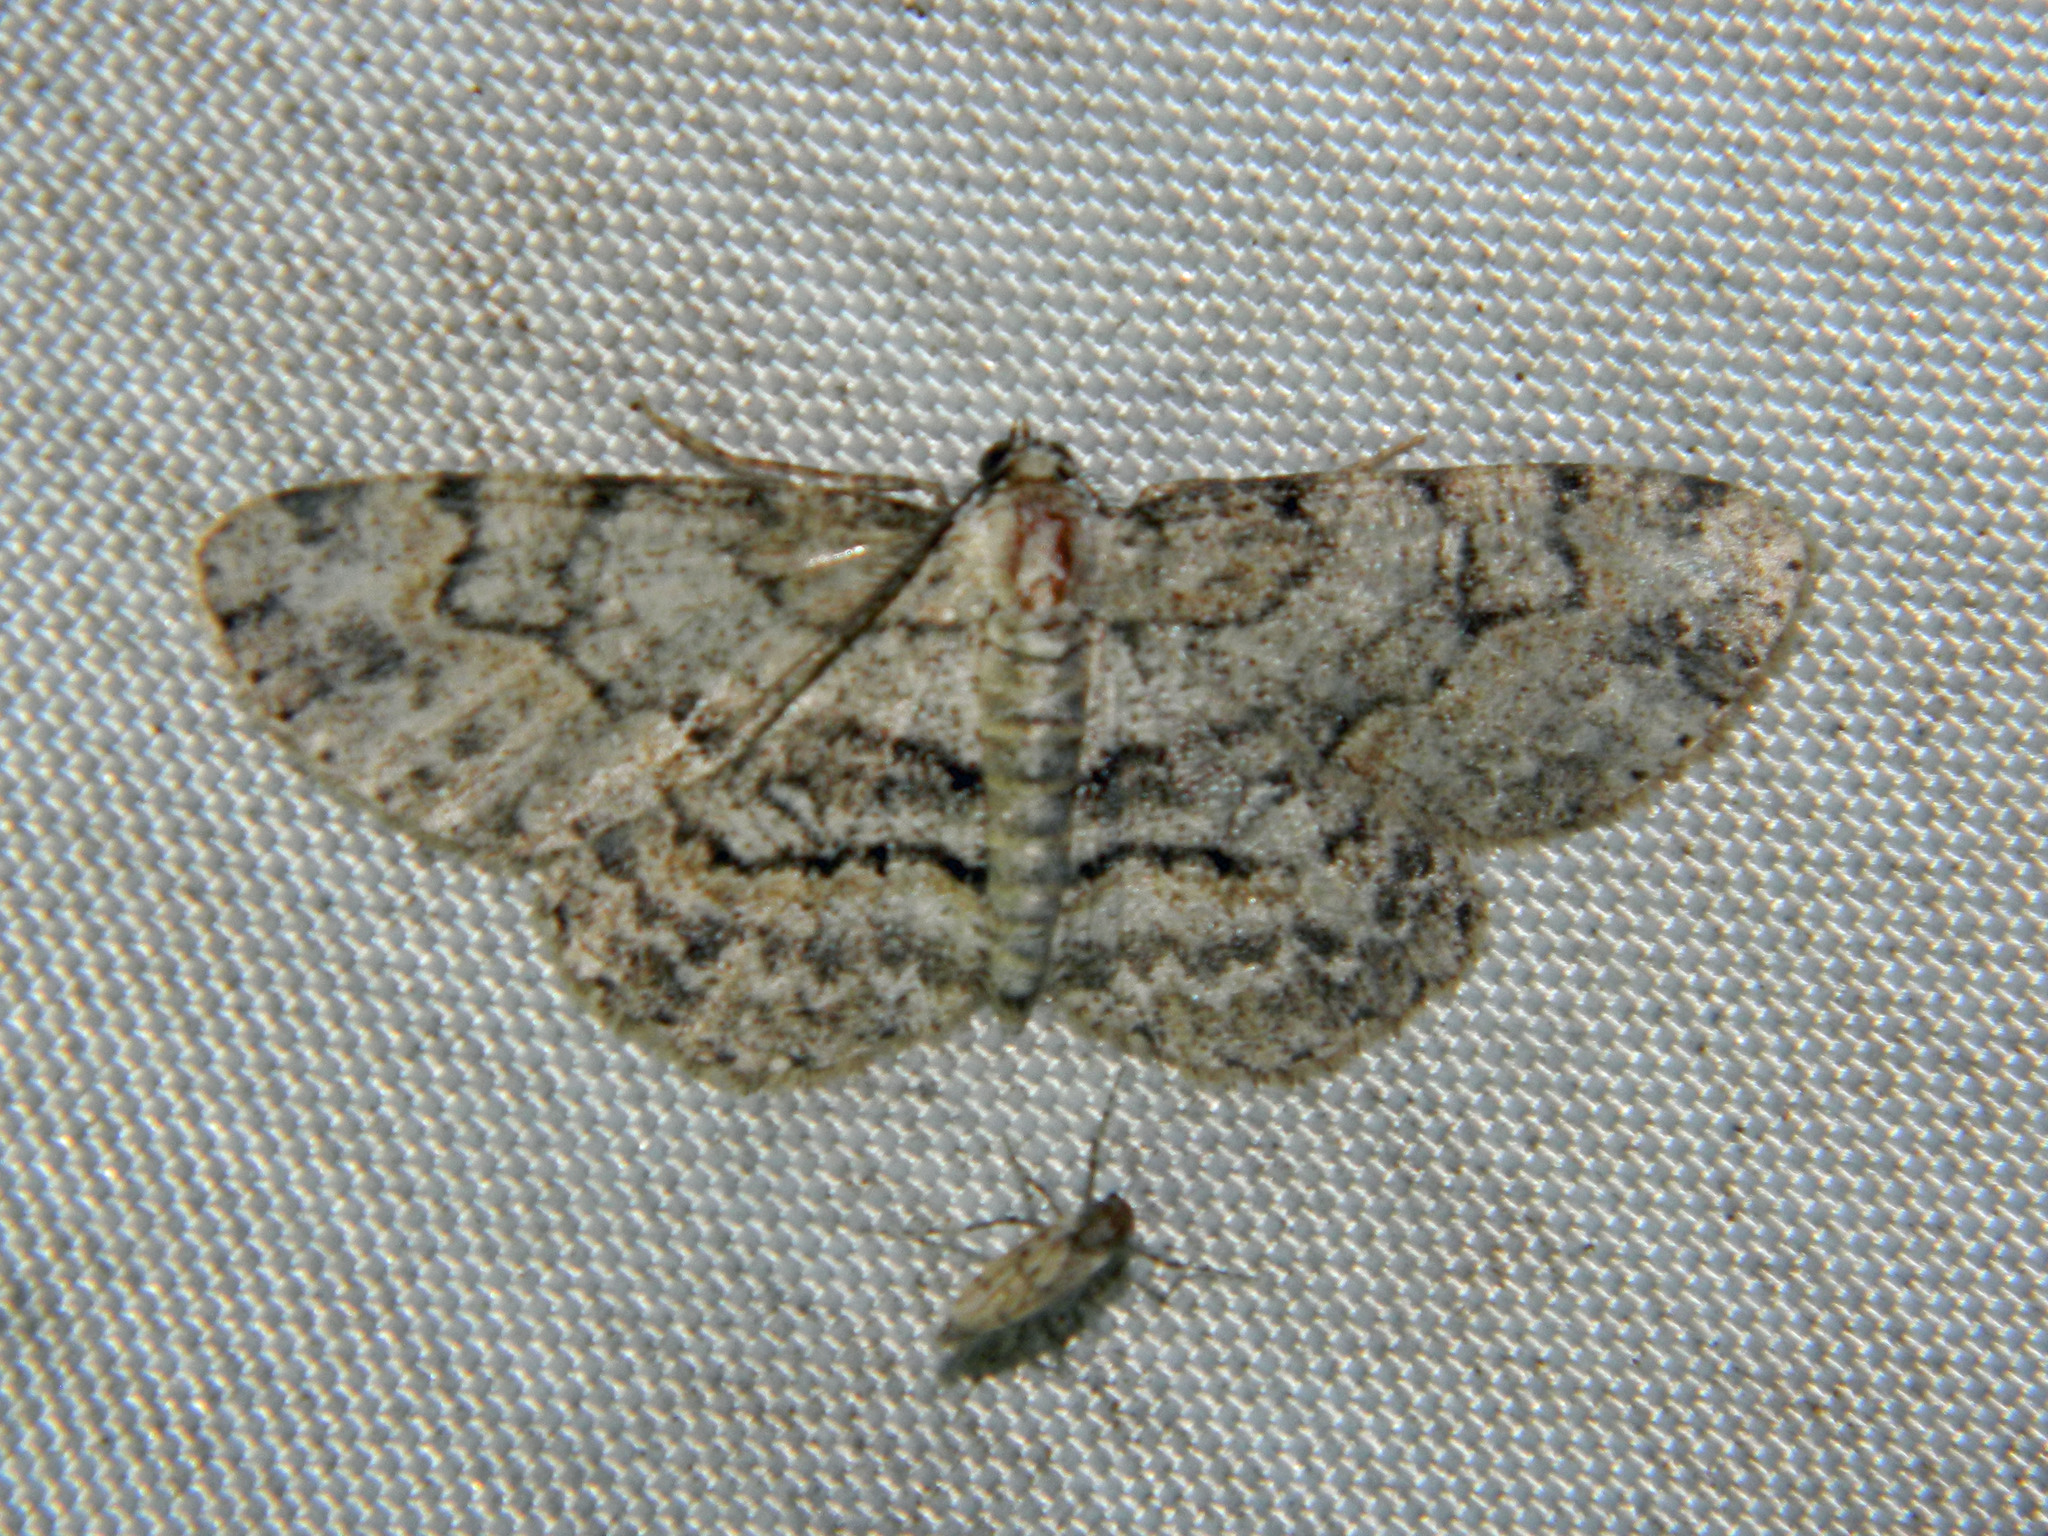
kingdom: Animalia
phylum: Arthropoda
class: Insecta
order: Lepidoptera
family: Geometridae
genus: Iridopsis
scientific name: Iridopsis ephyraria
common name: Pale-winged gray
